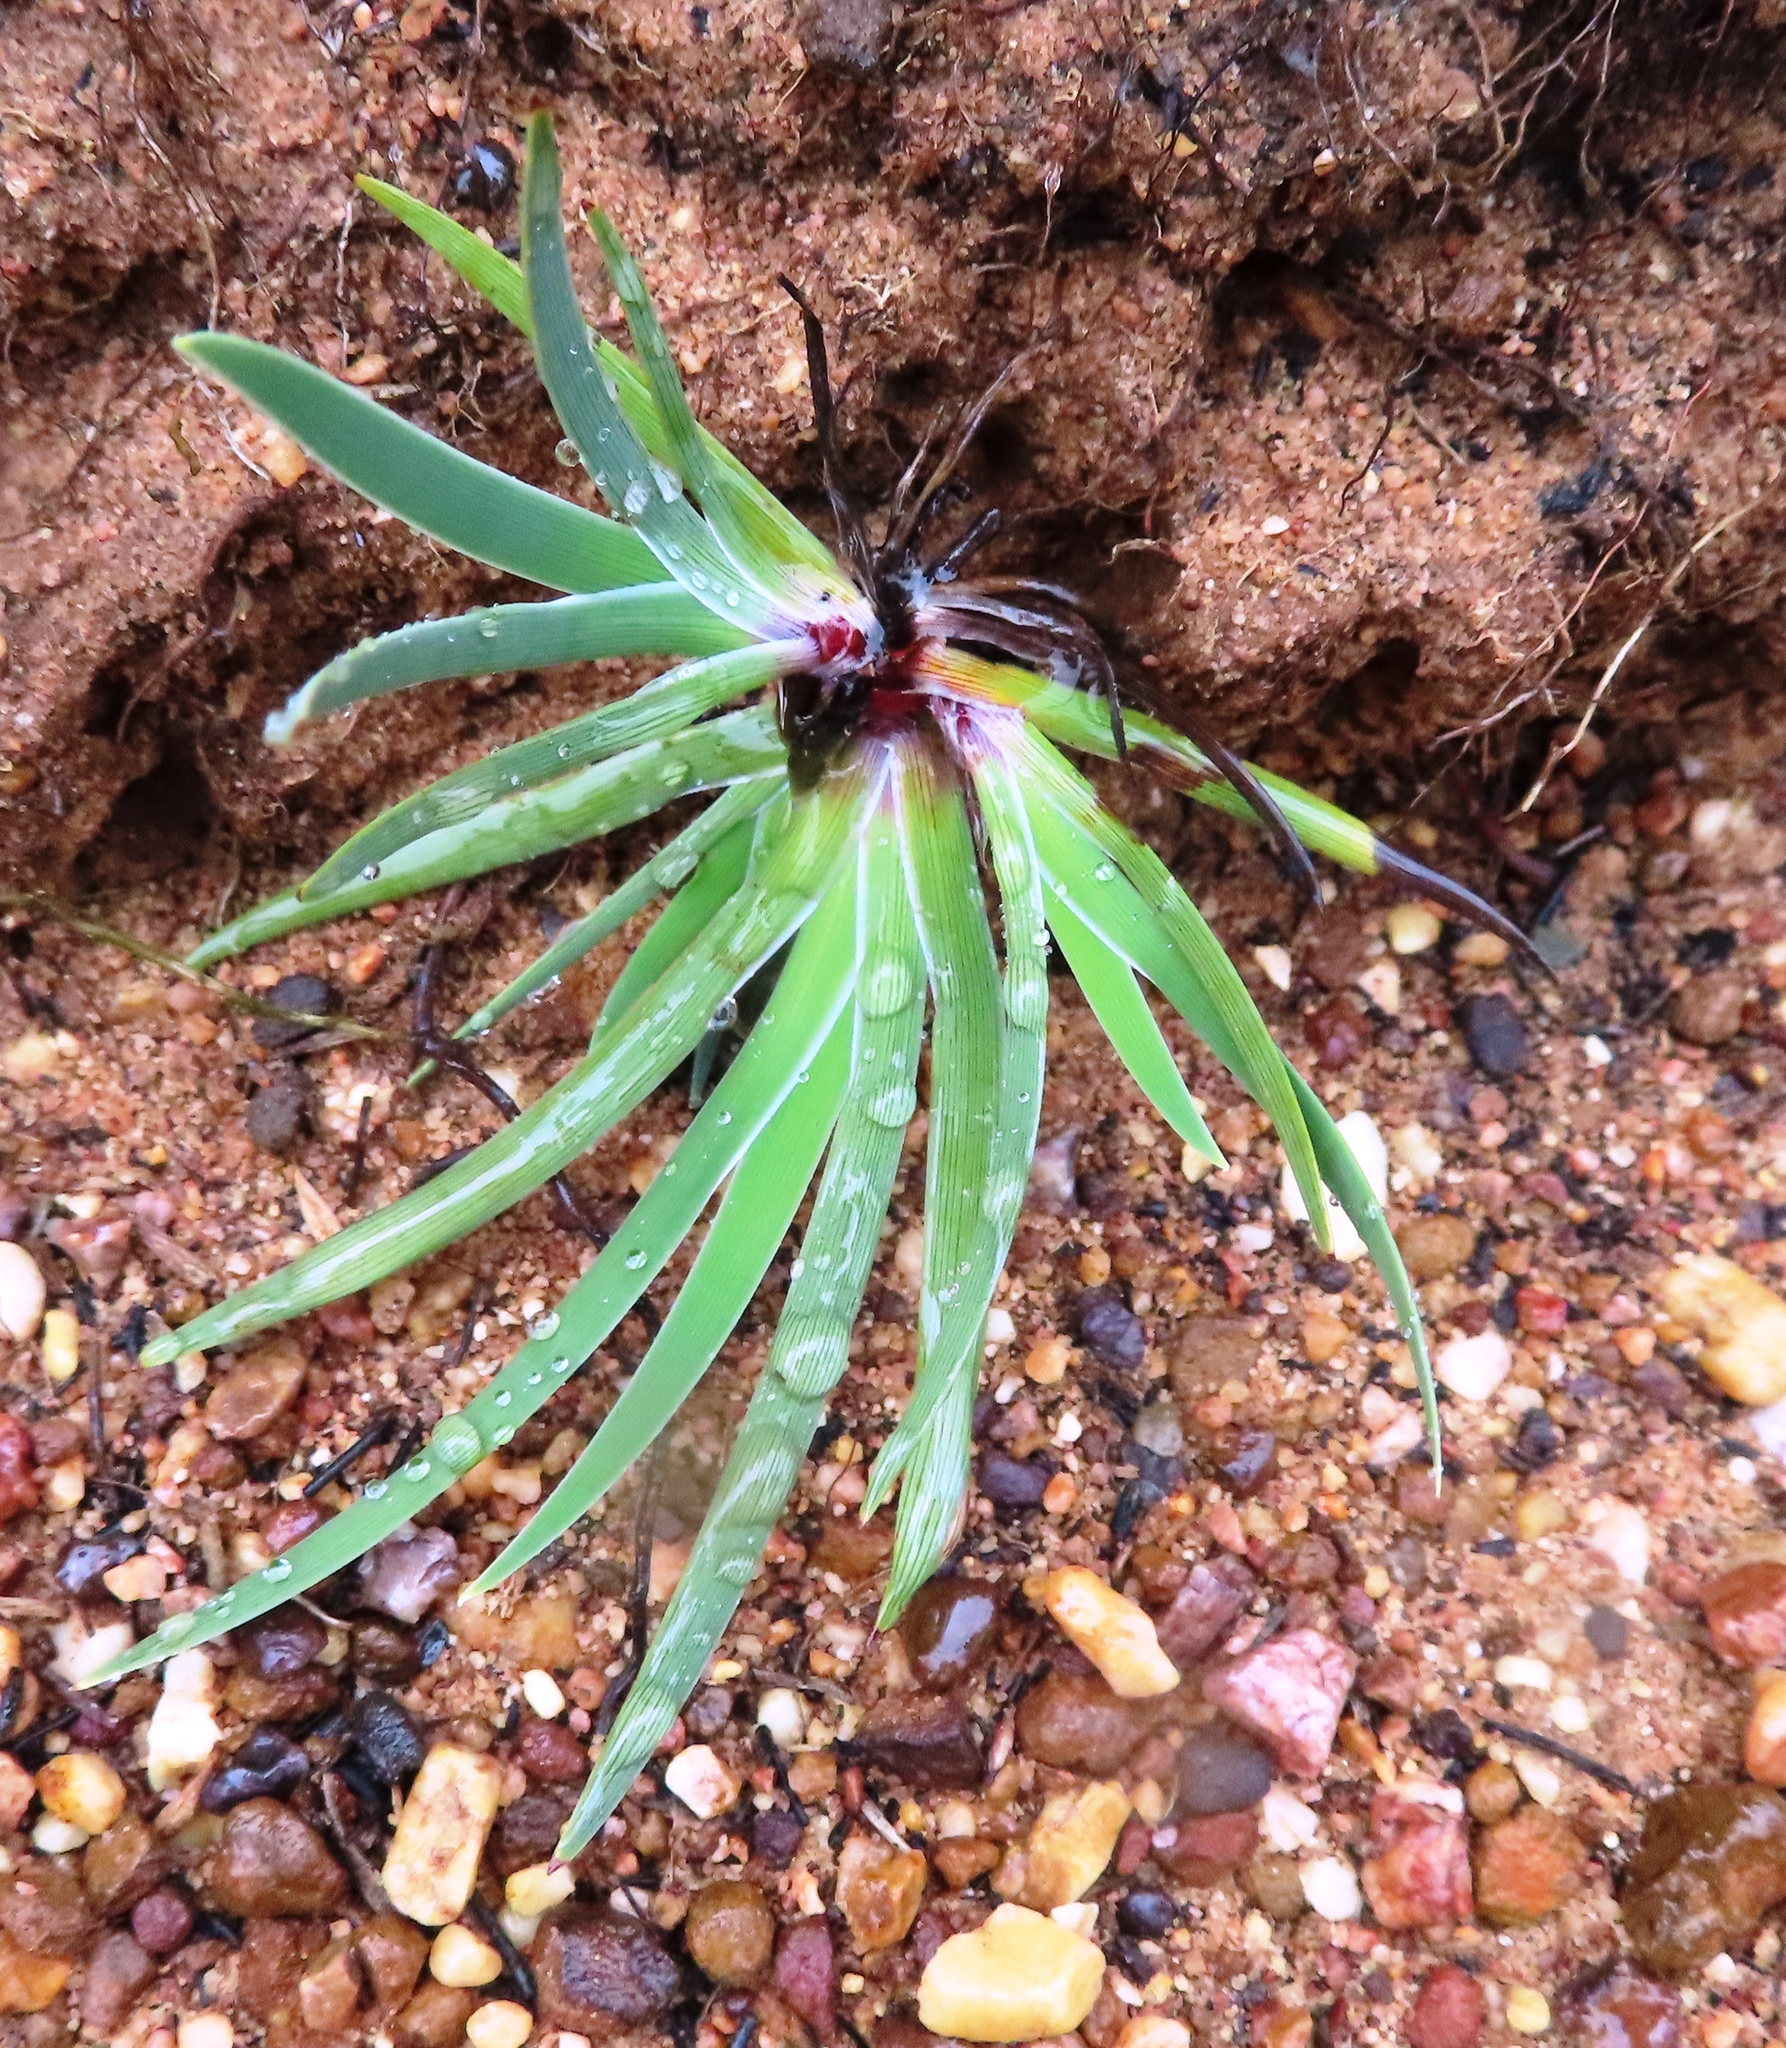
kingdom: Plantae
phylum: Tracheophyta
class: Liliopsida
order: Asparagales
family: Iridaceae
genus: Aristea
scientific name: Aristea africana
